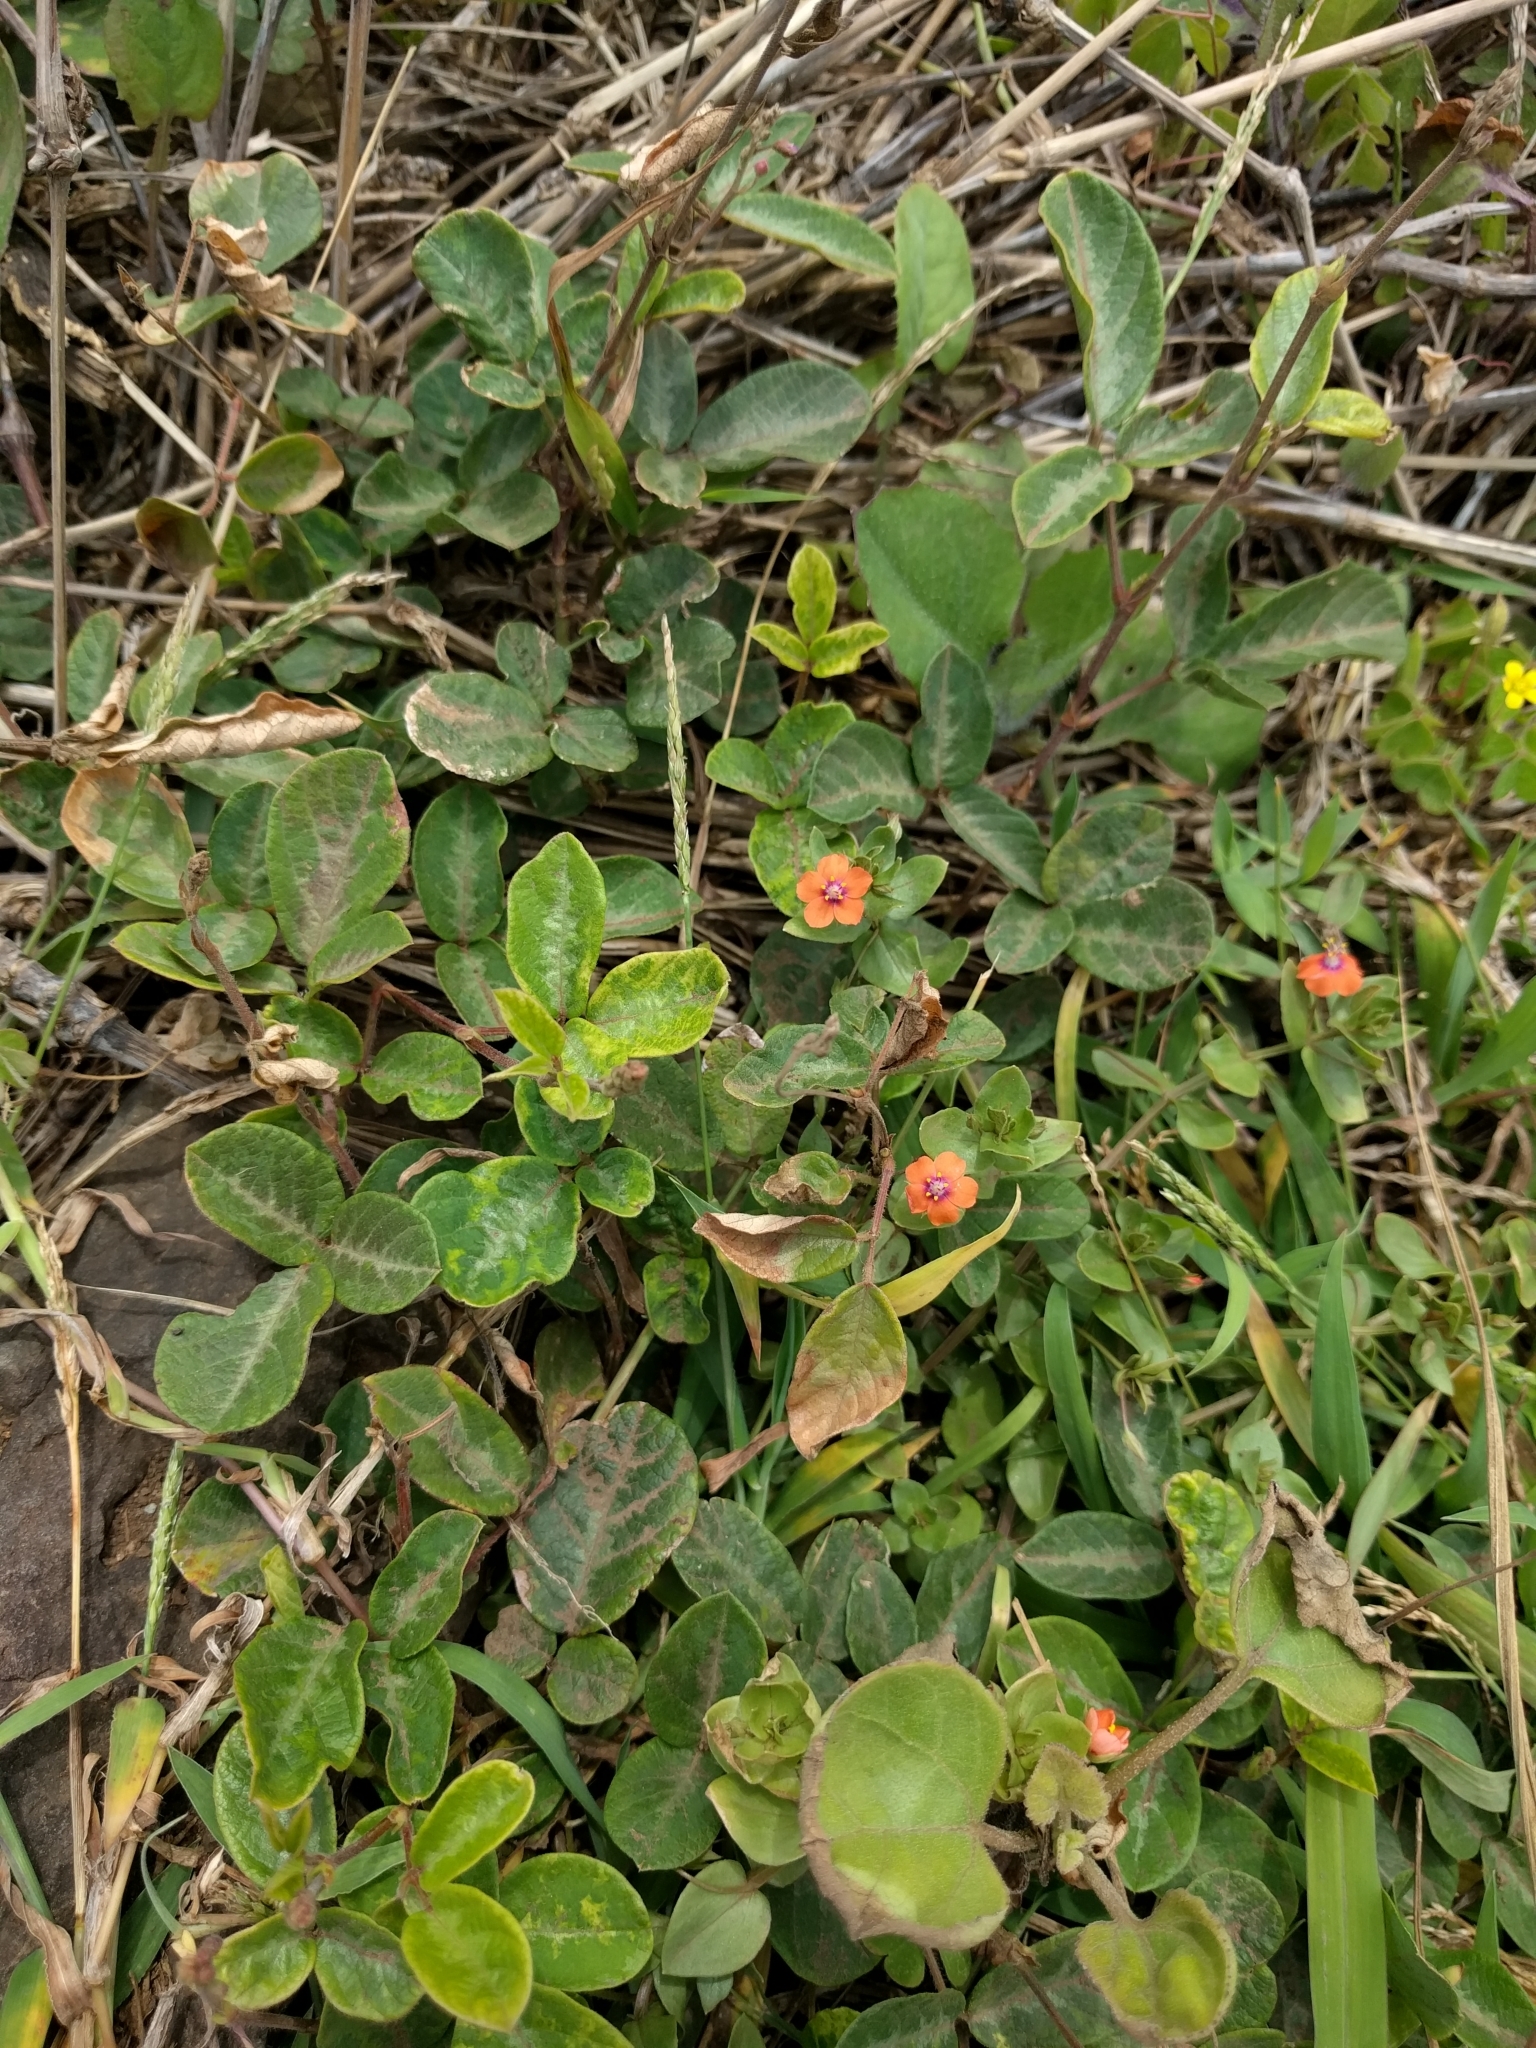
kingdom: Plantae
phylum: Tracheophyta
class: Magnoliopsida
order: Ericales
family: Primulaceae
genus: Lysimachia
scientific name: Lysimachia arvensis
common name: Scarlet pimpernel
